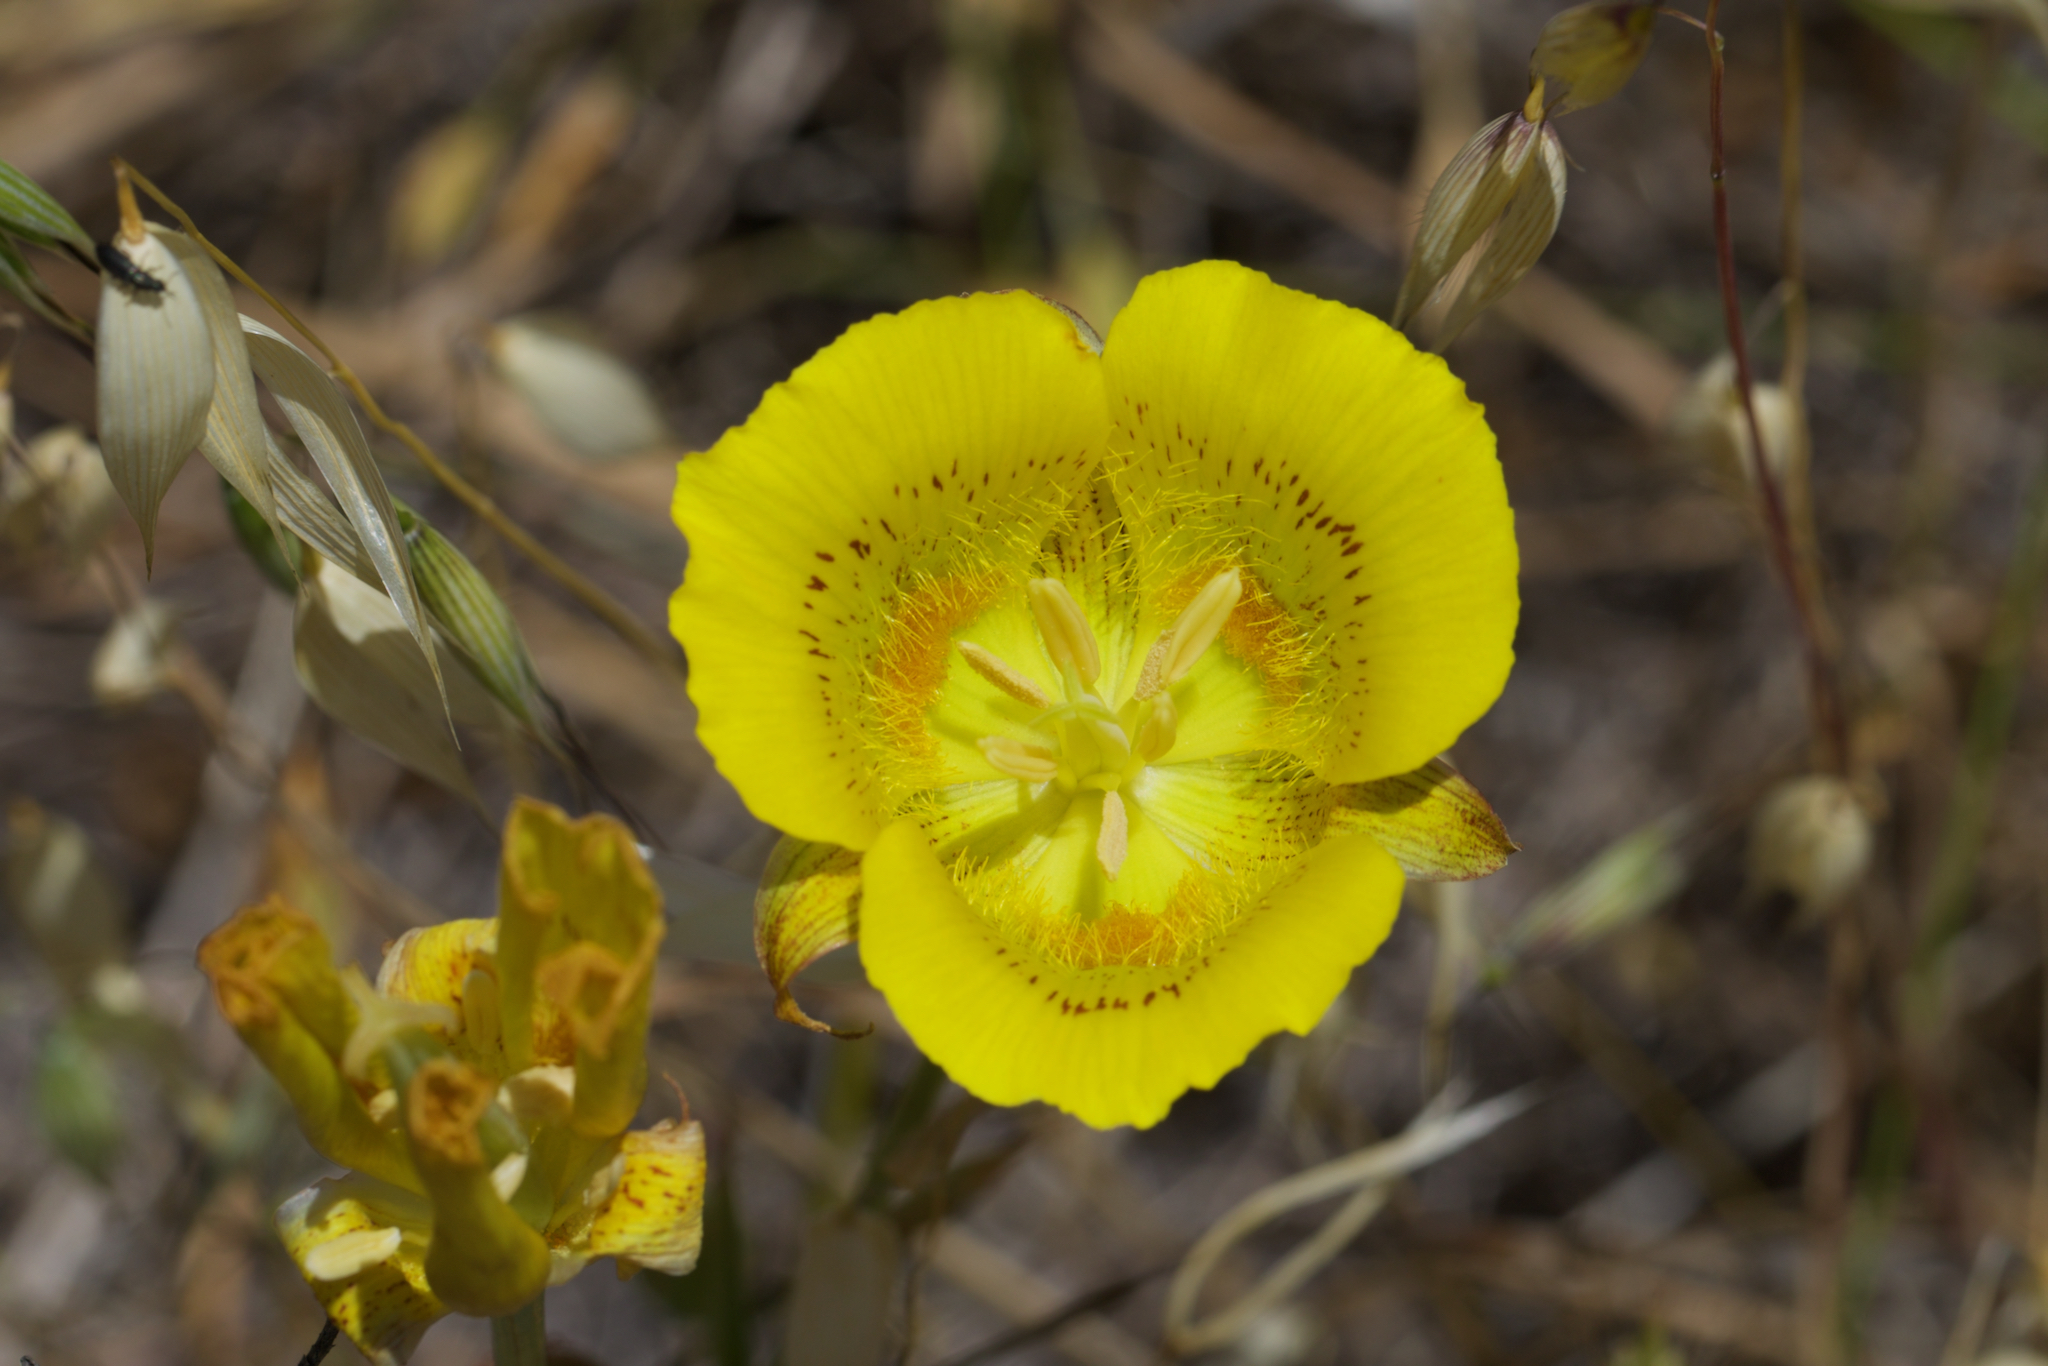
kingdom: Plantae
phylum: Tracheophyta
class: Liliopsida
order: Liliales
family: Liliaceae
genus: Calochortus
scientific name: Calochortus luteus
